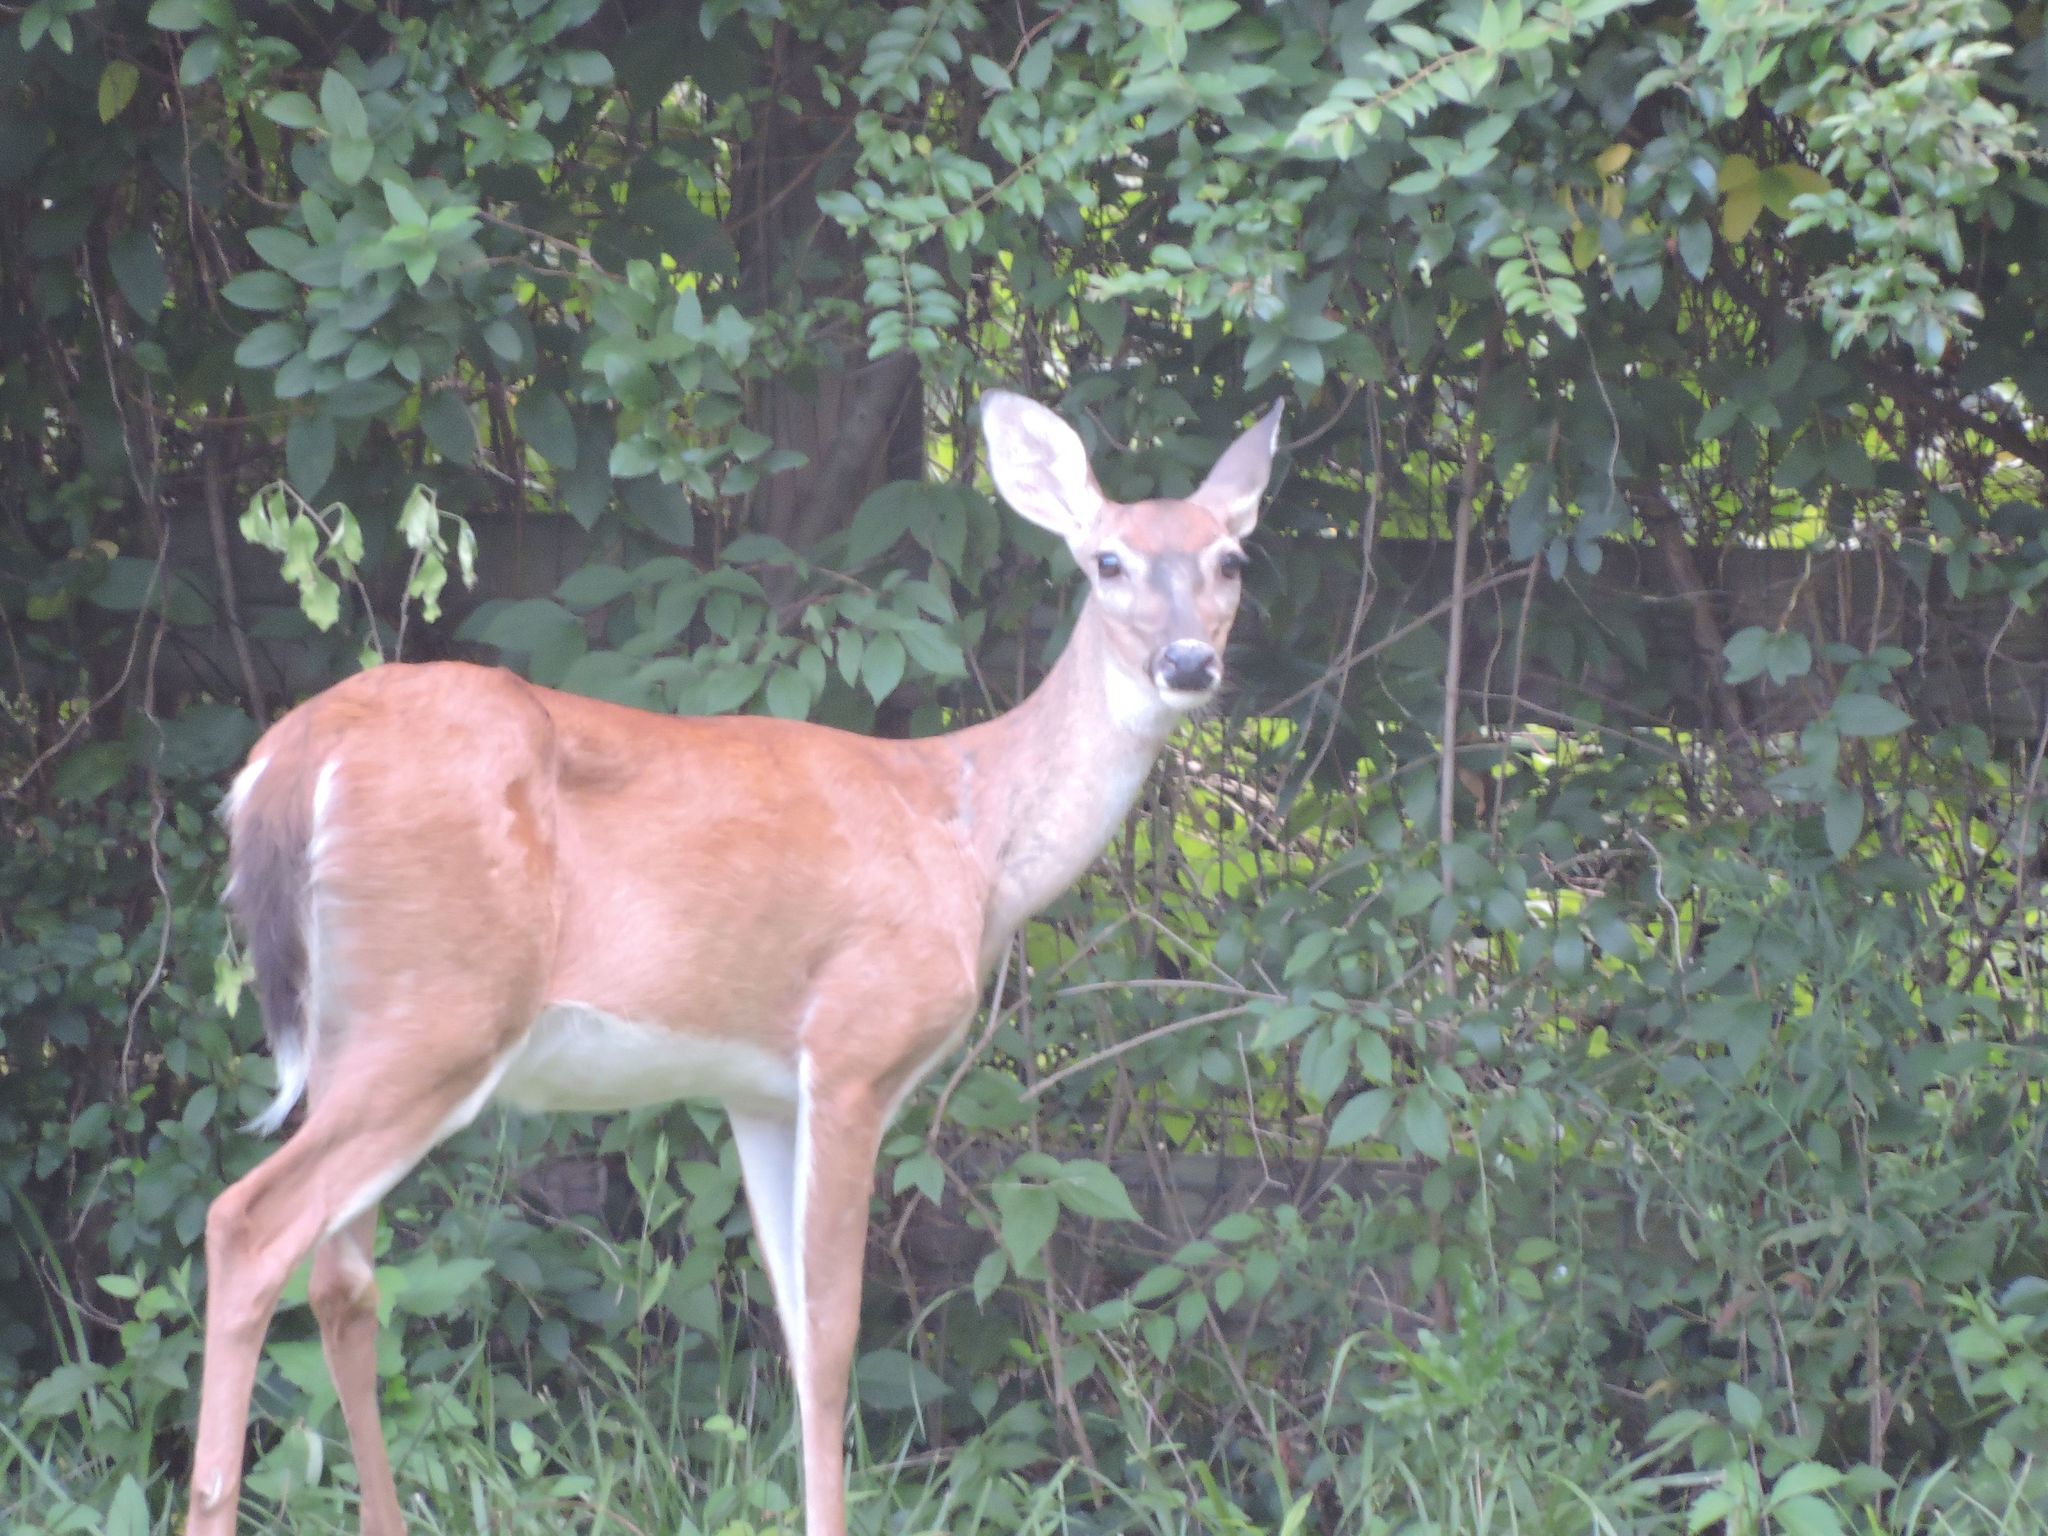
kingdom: Animalia
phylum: Chordata
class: Mammalia
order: Artiodactyla
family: Cervidae
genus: Odocoileus
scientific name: Odocoileus virginianus
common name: White-tailed deer
